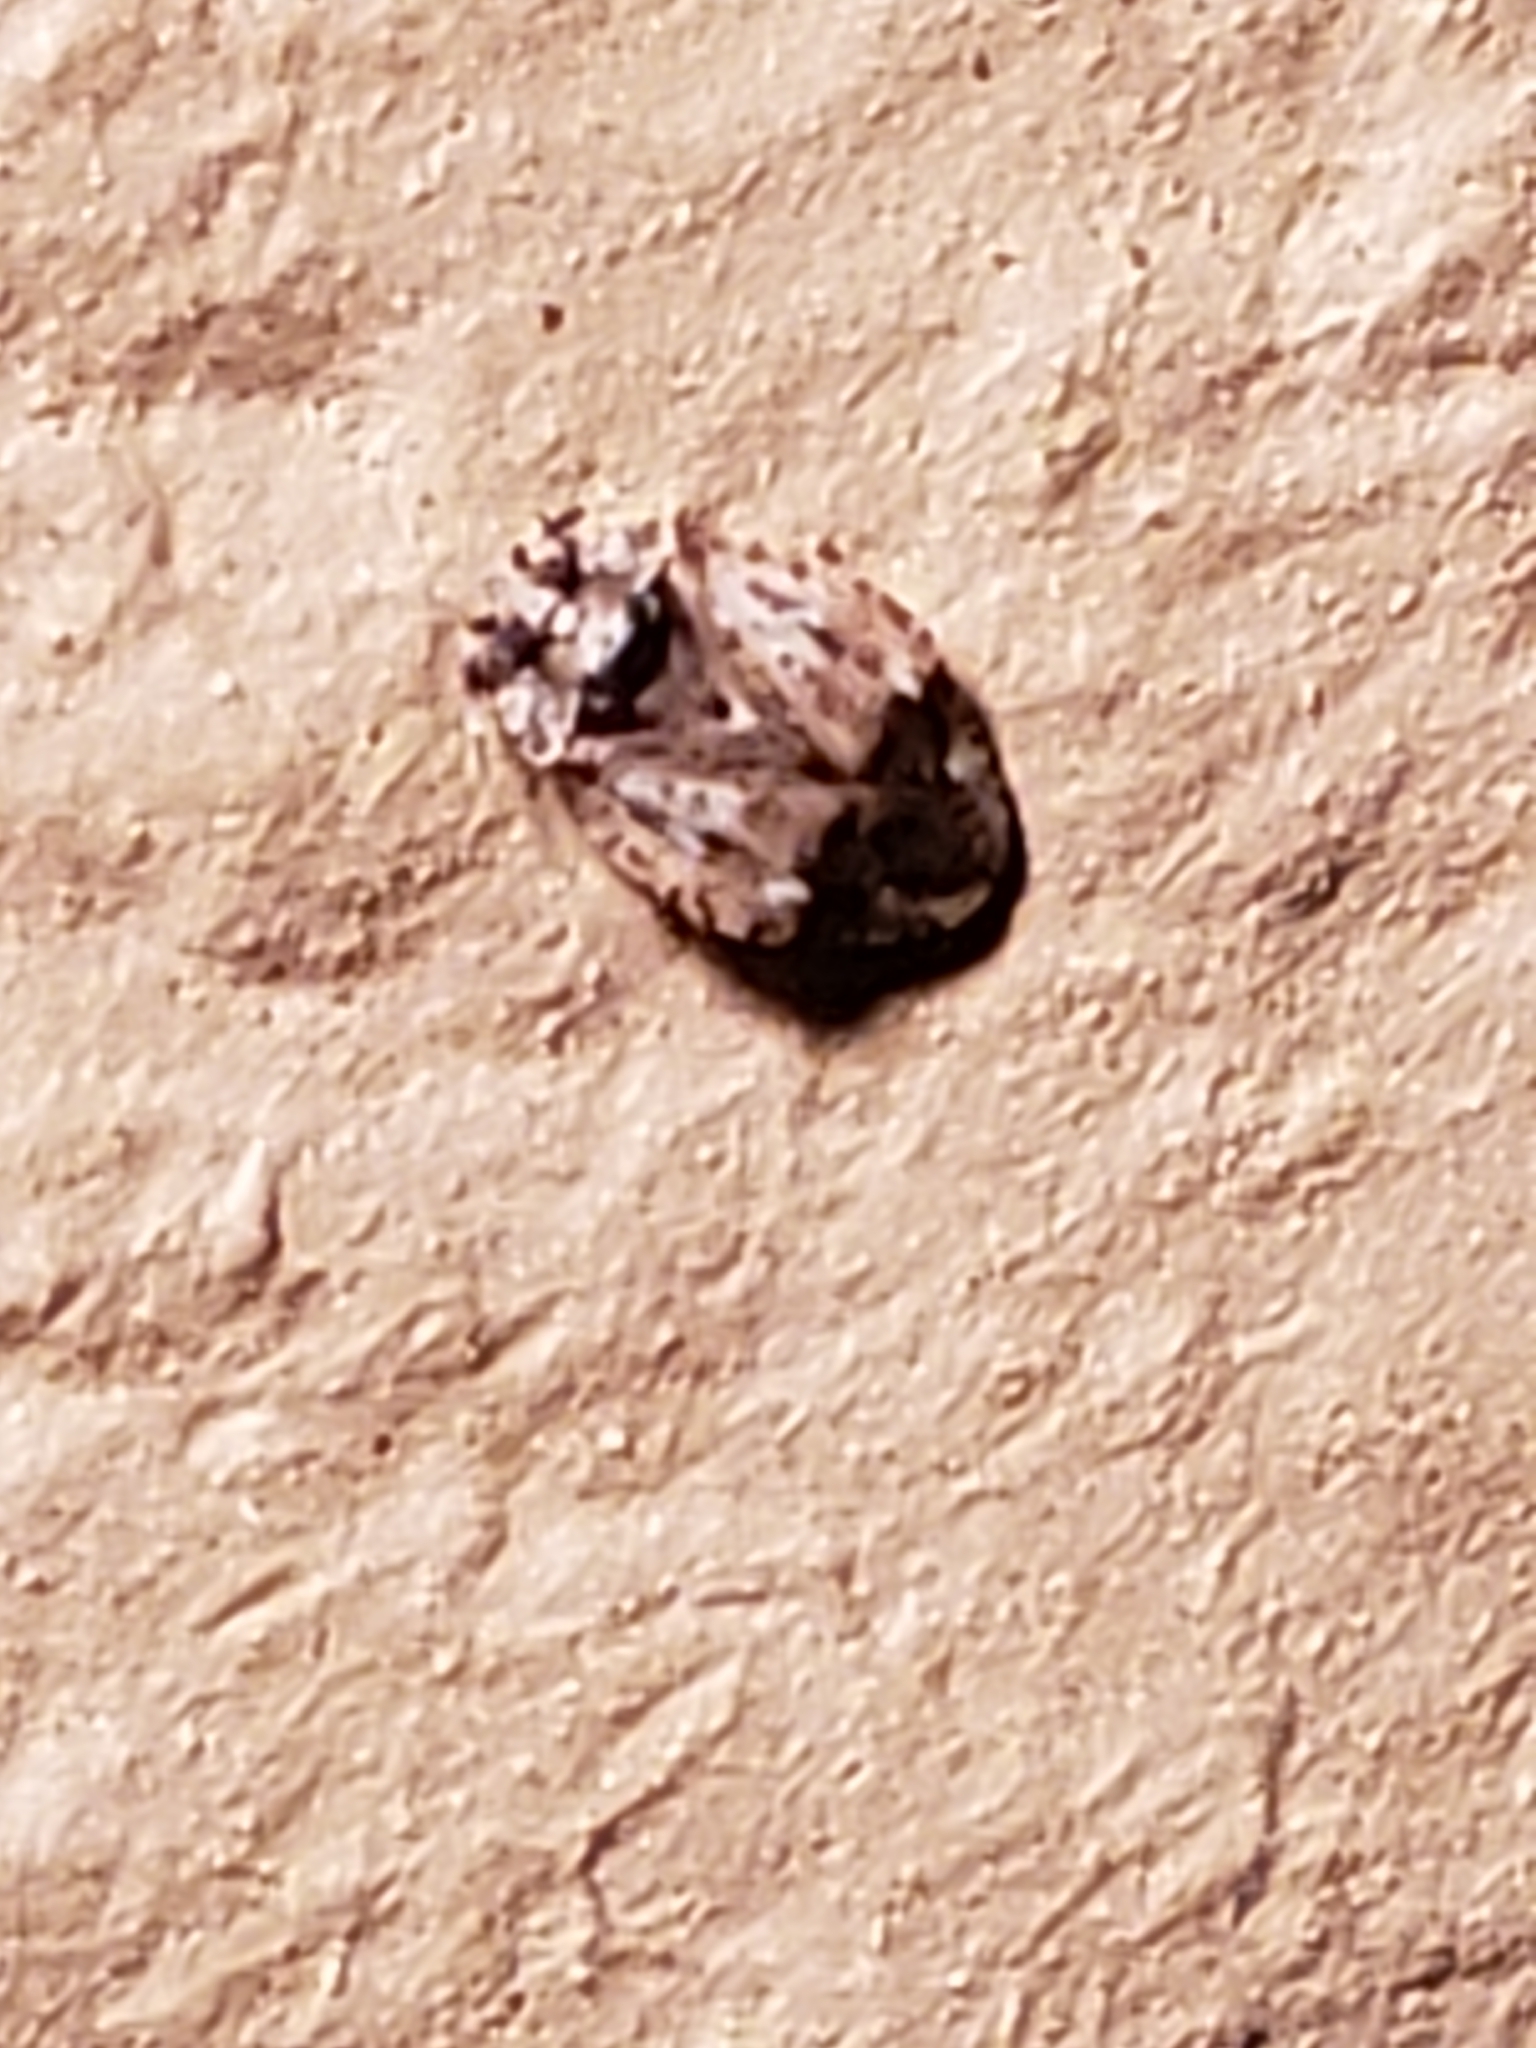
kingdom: Animalia
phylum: Arthropoda
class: Insecta
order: Hemiptera
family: Miridae
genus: Diphleps
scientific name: Diphleps unica
